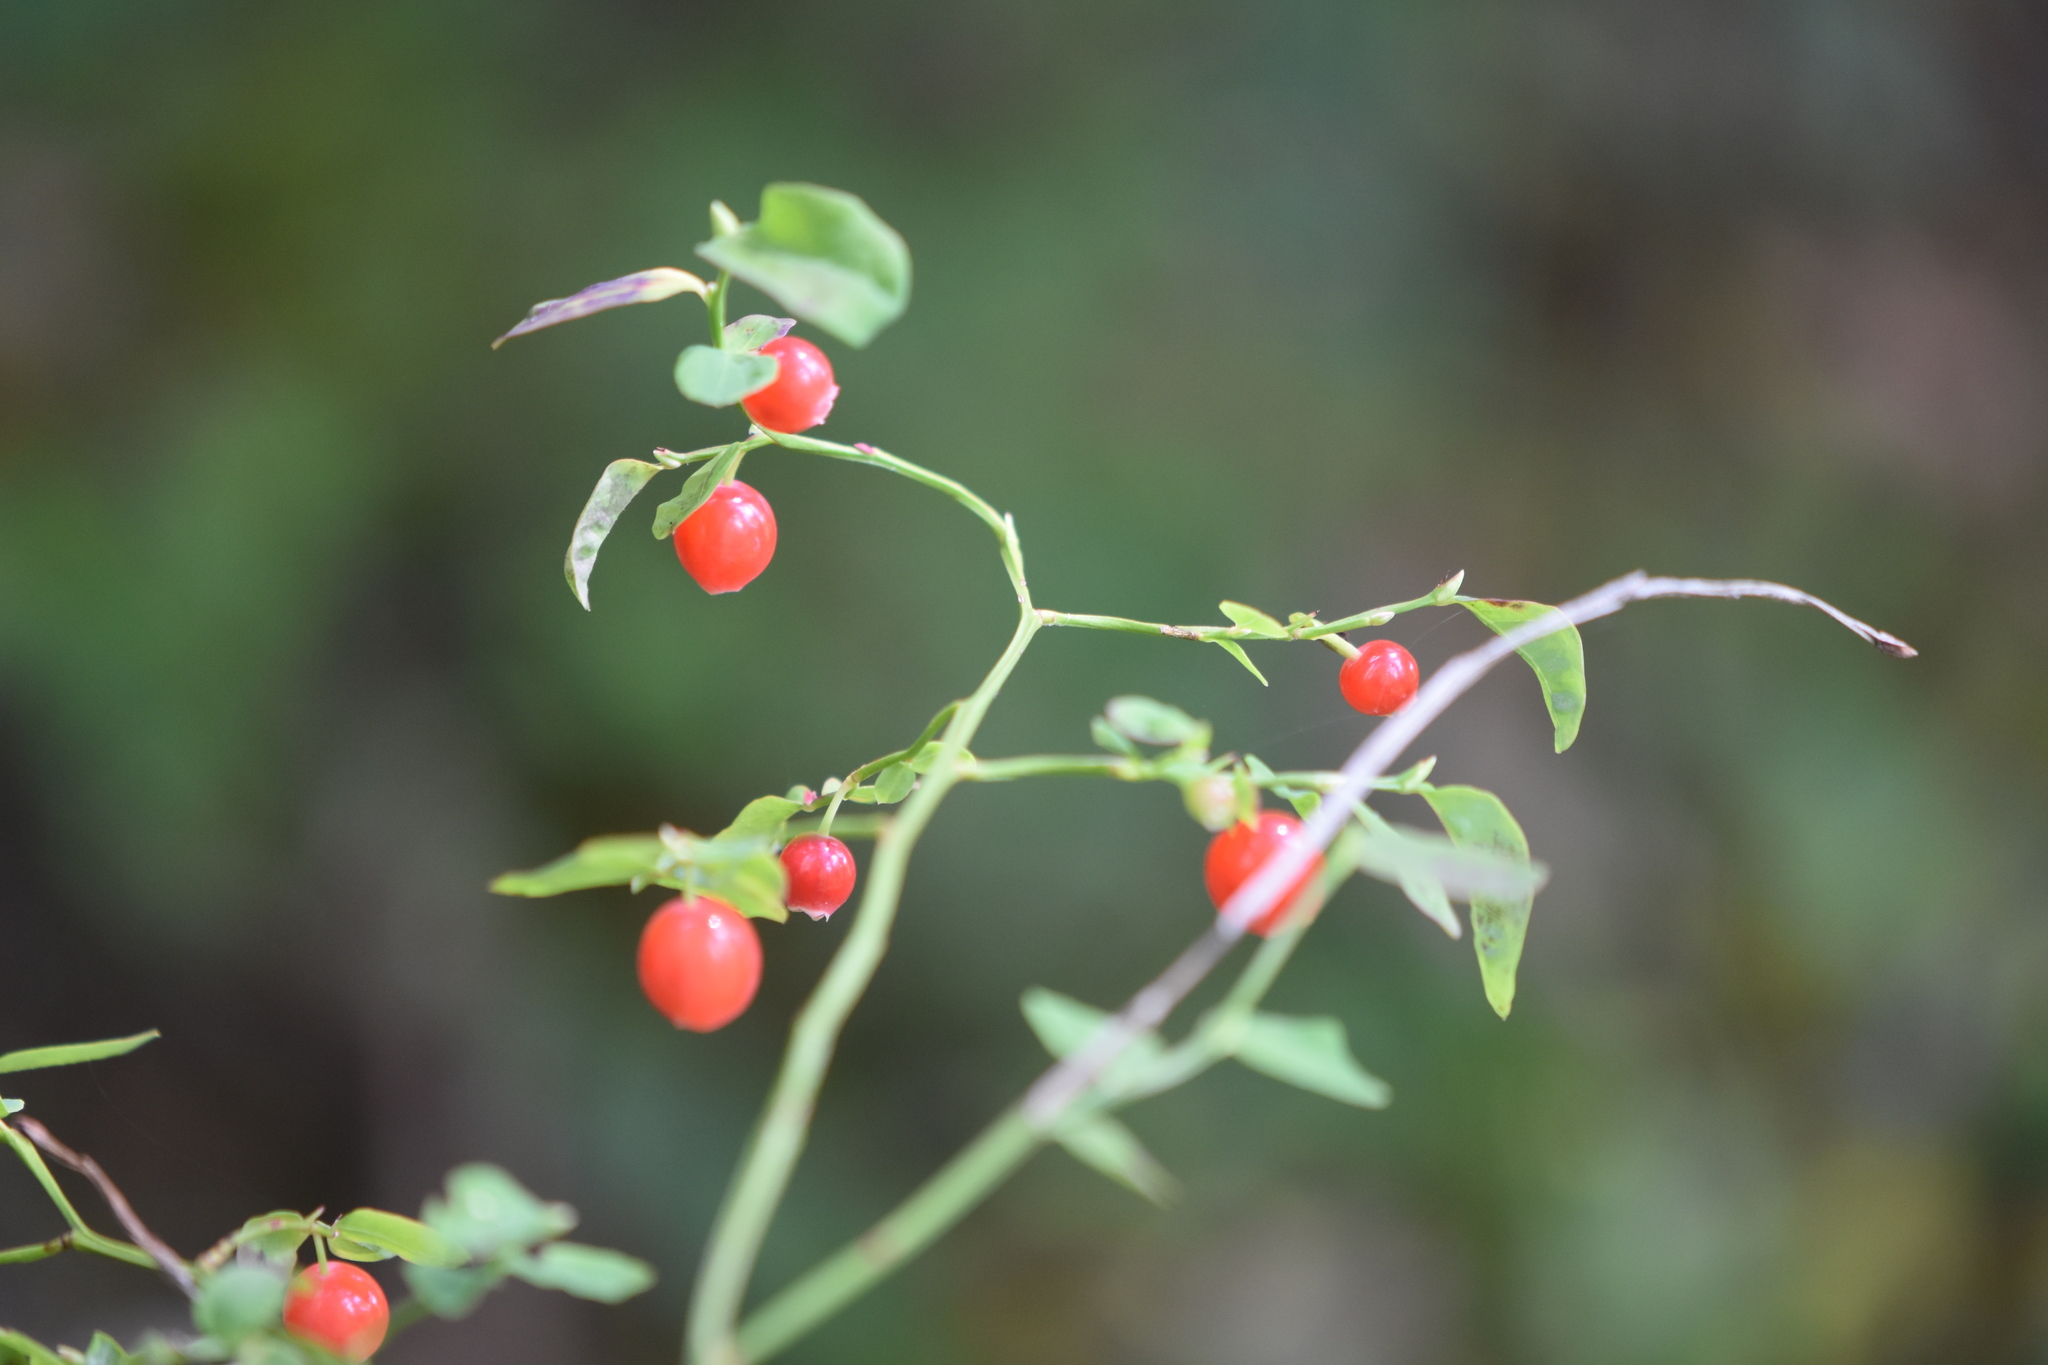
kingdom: Plantae
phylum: Tracheophyta
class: Magnoliopsida
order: Ericales
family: Ericaceae
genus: Vaccinium
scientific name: Vaccinium parvifolium
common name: Red-huckleberry
